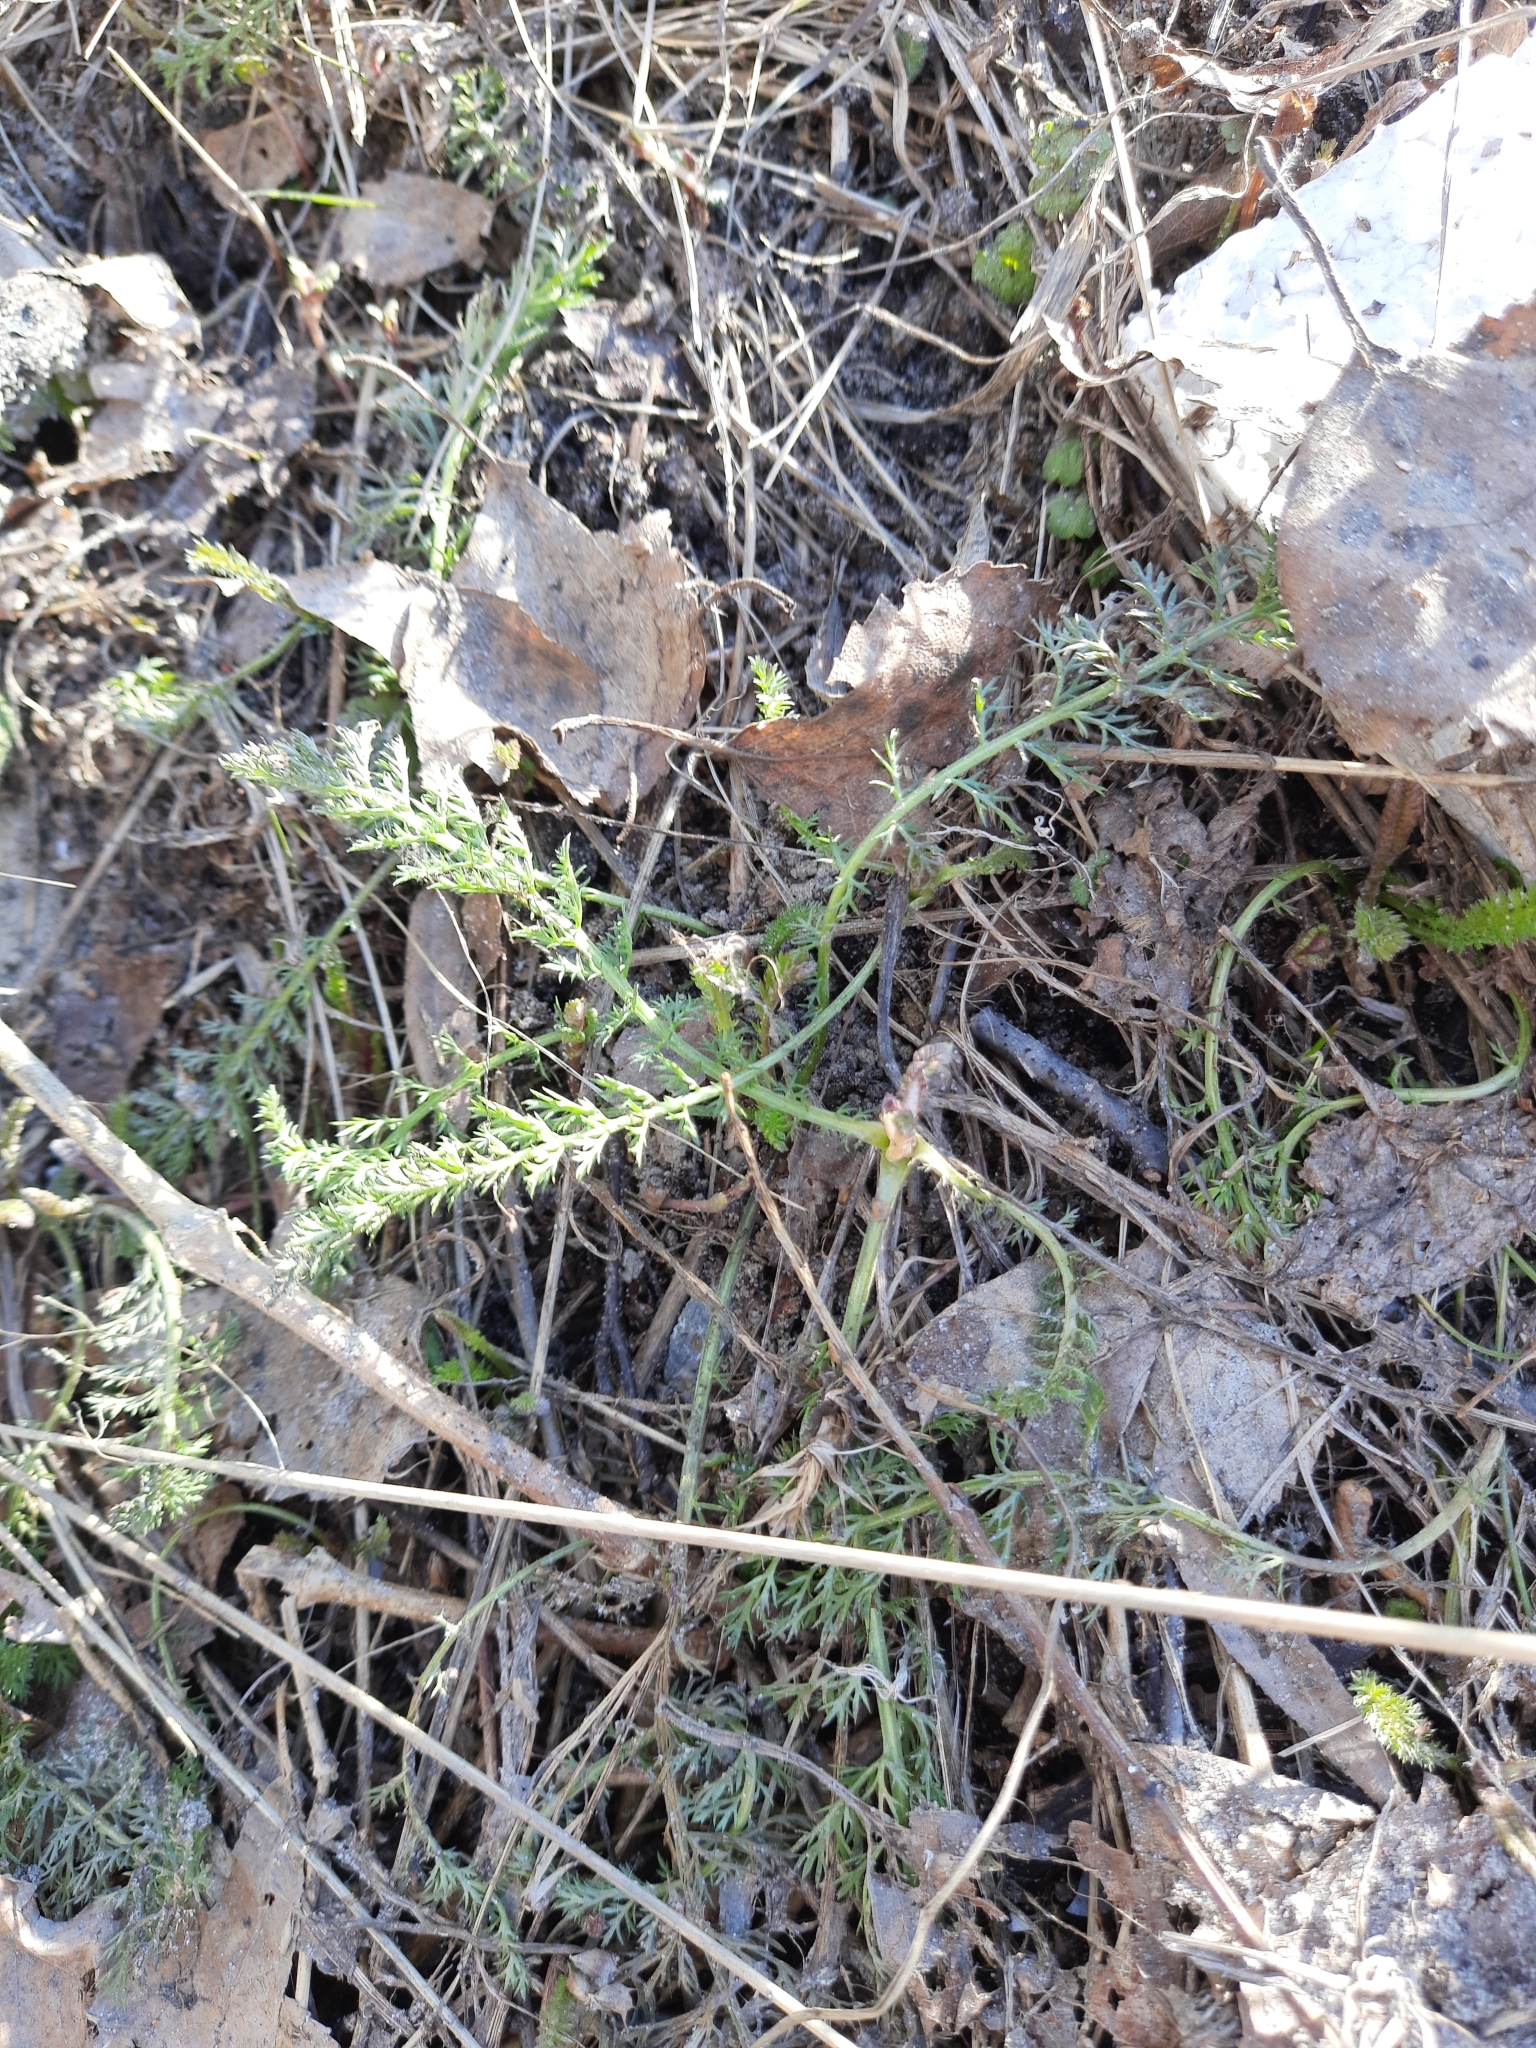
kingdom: Plantae
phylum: Tracheophyta
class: Magnoliopsida
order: Asterales
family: Asteraceae
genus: Achillea
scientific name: Achillea millefolium
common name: Yarrow
